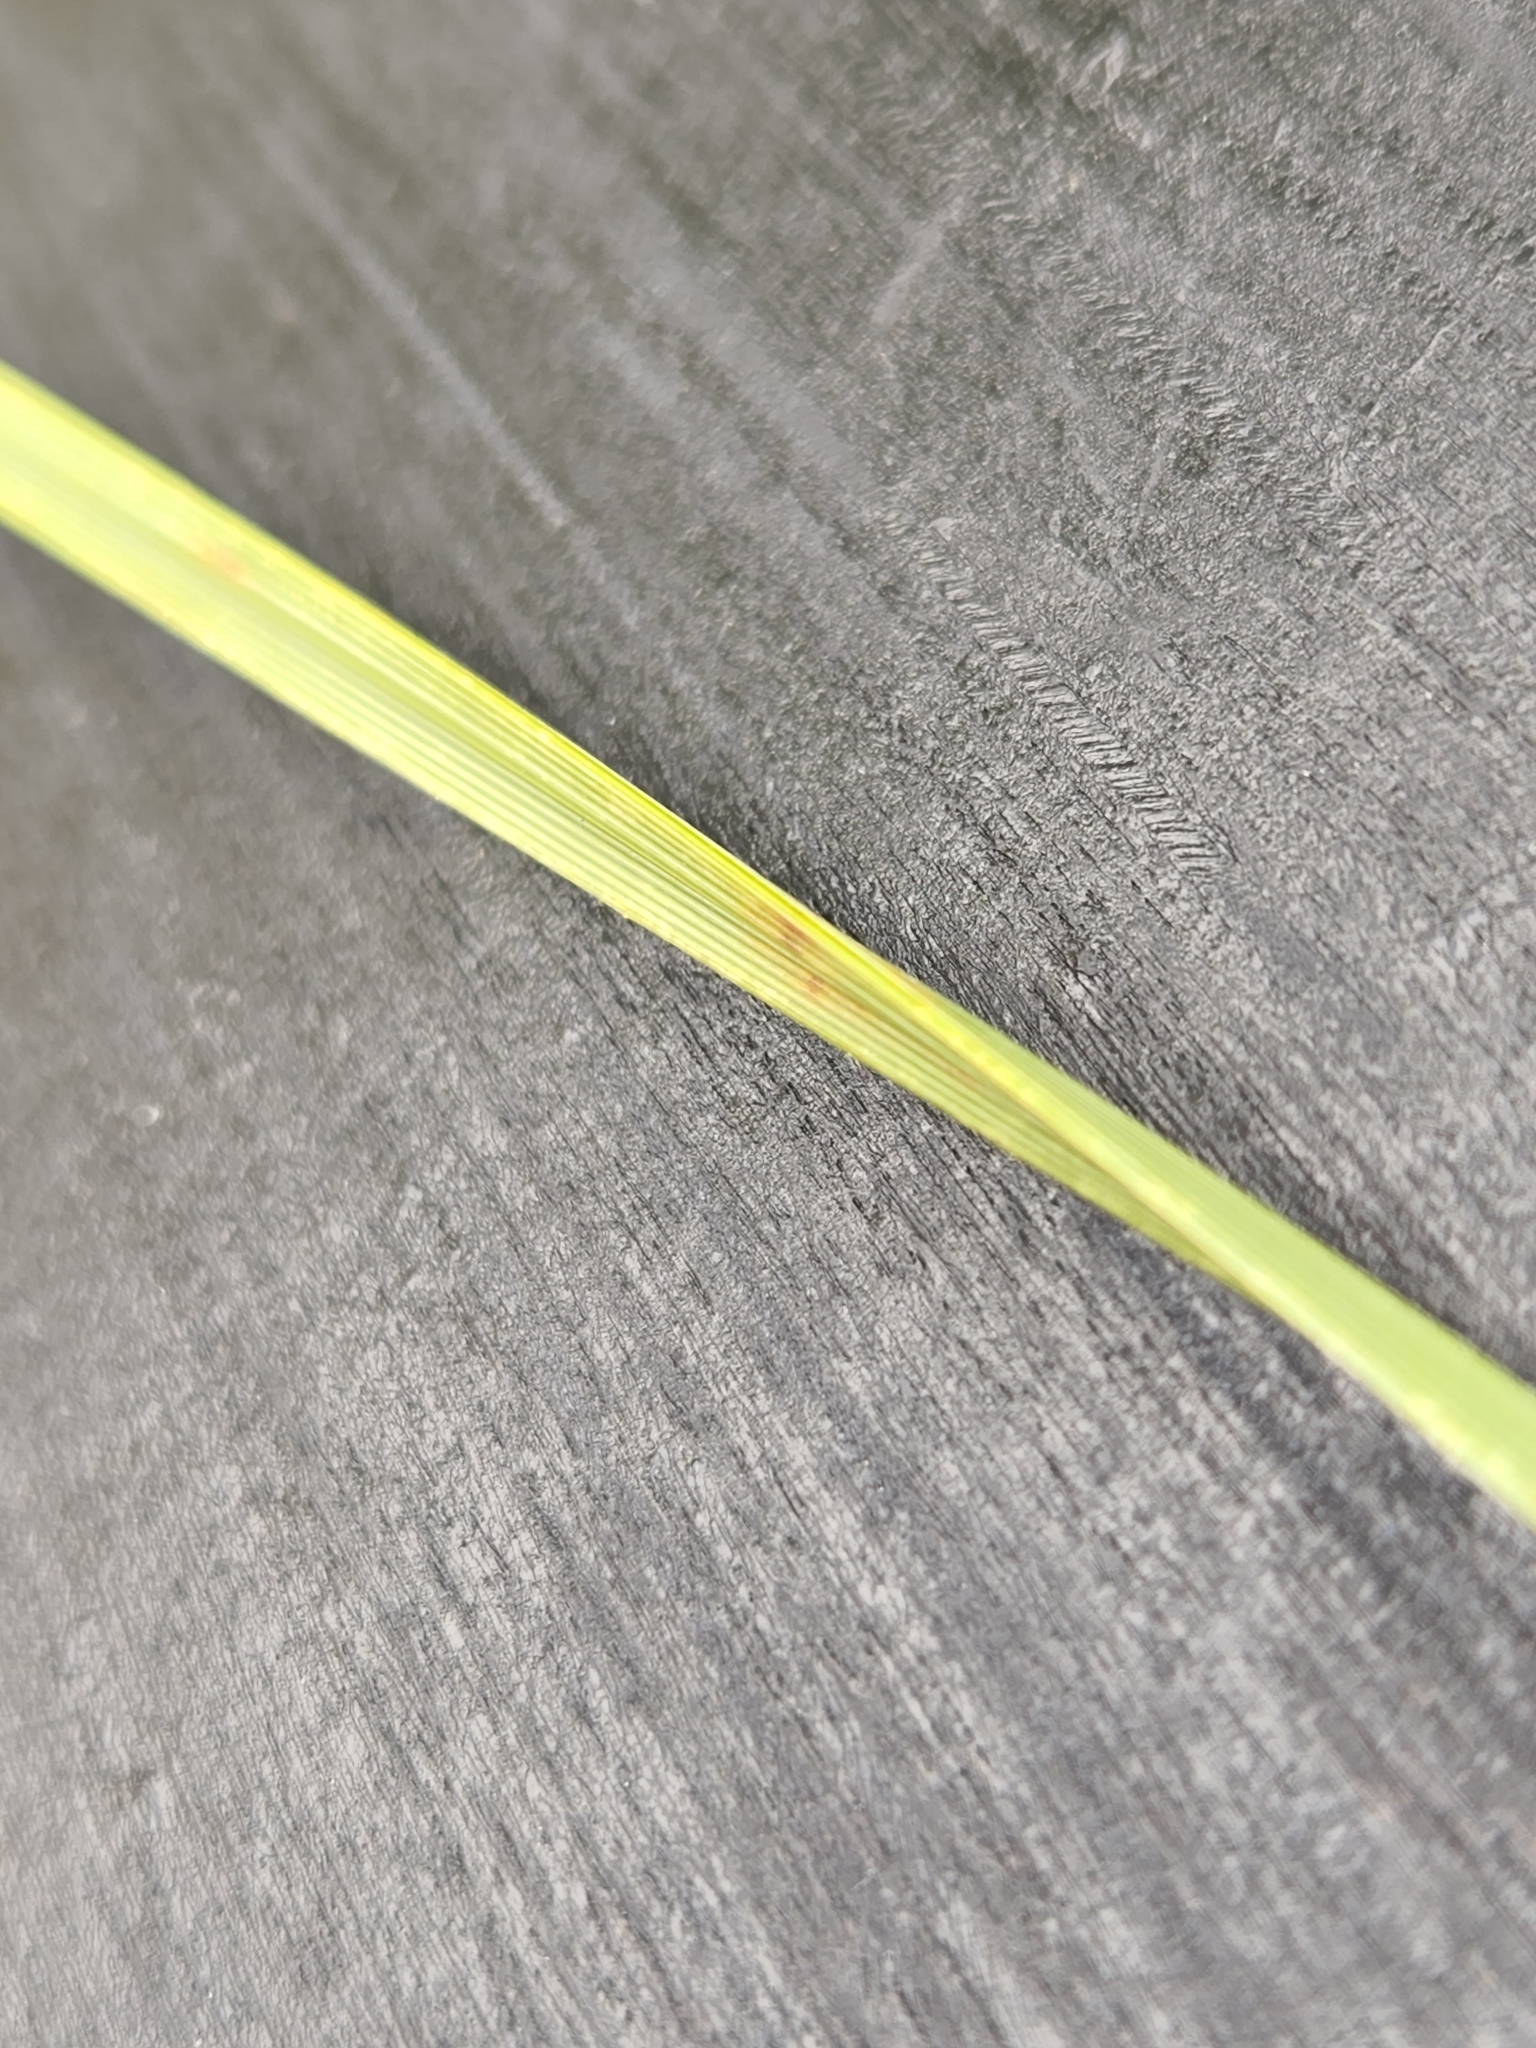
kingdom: Plantae
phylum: Tracheophyta
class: Liliopsida
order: Asparagales
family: Asparagaceae
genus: Nolina
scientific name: Nolina lindheimeriana
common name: Lindheimer's bear-grass
